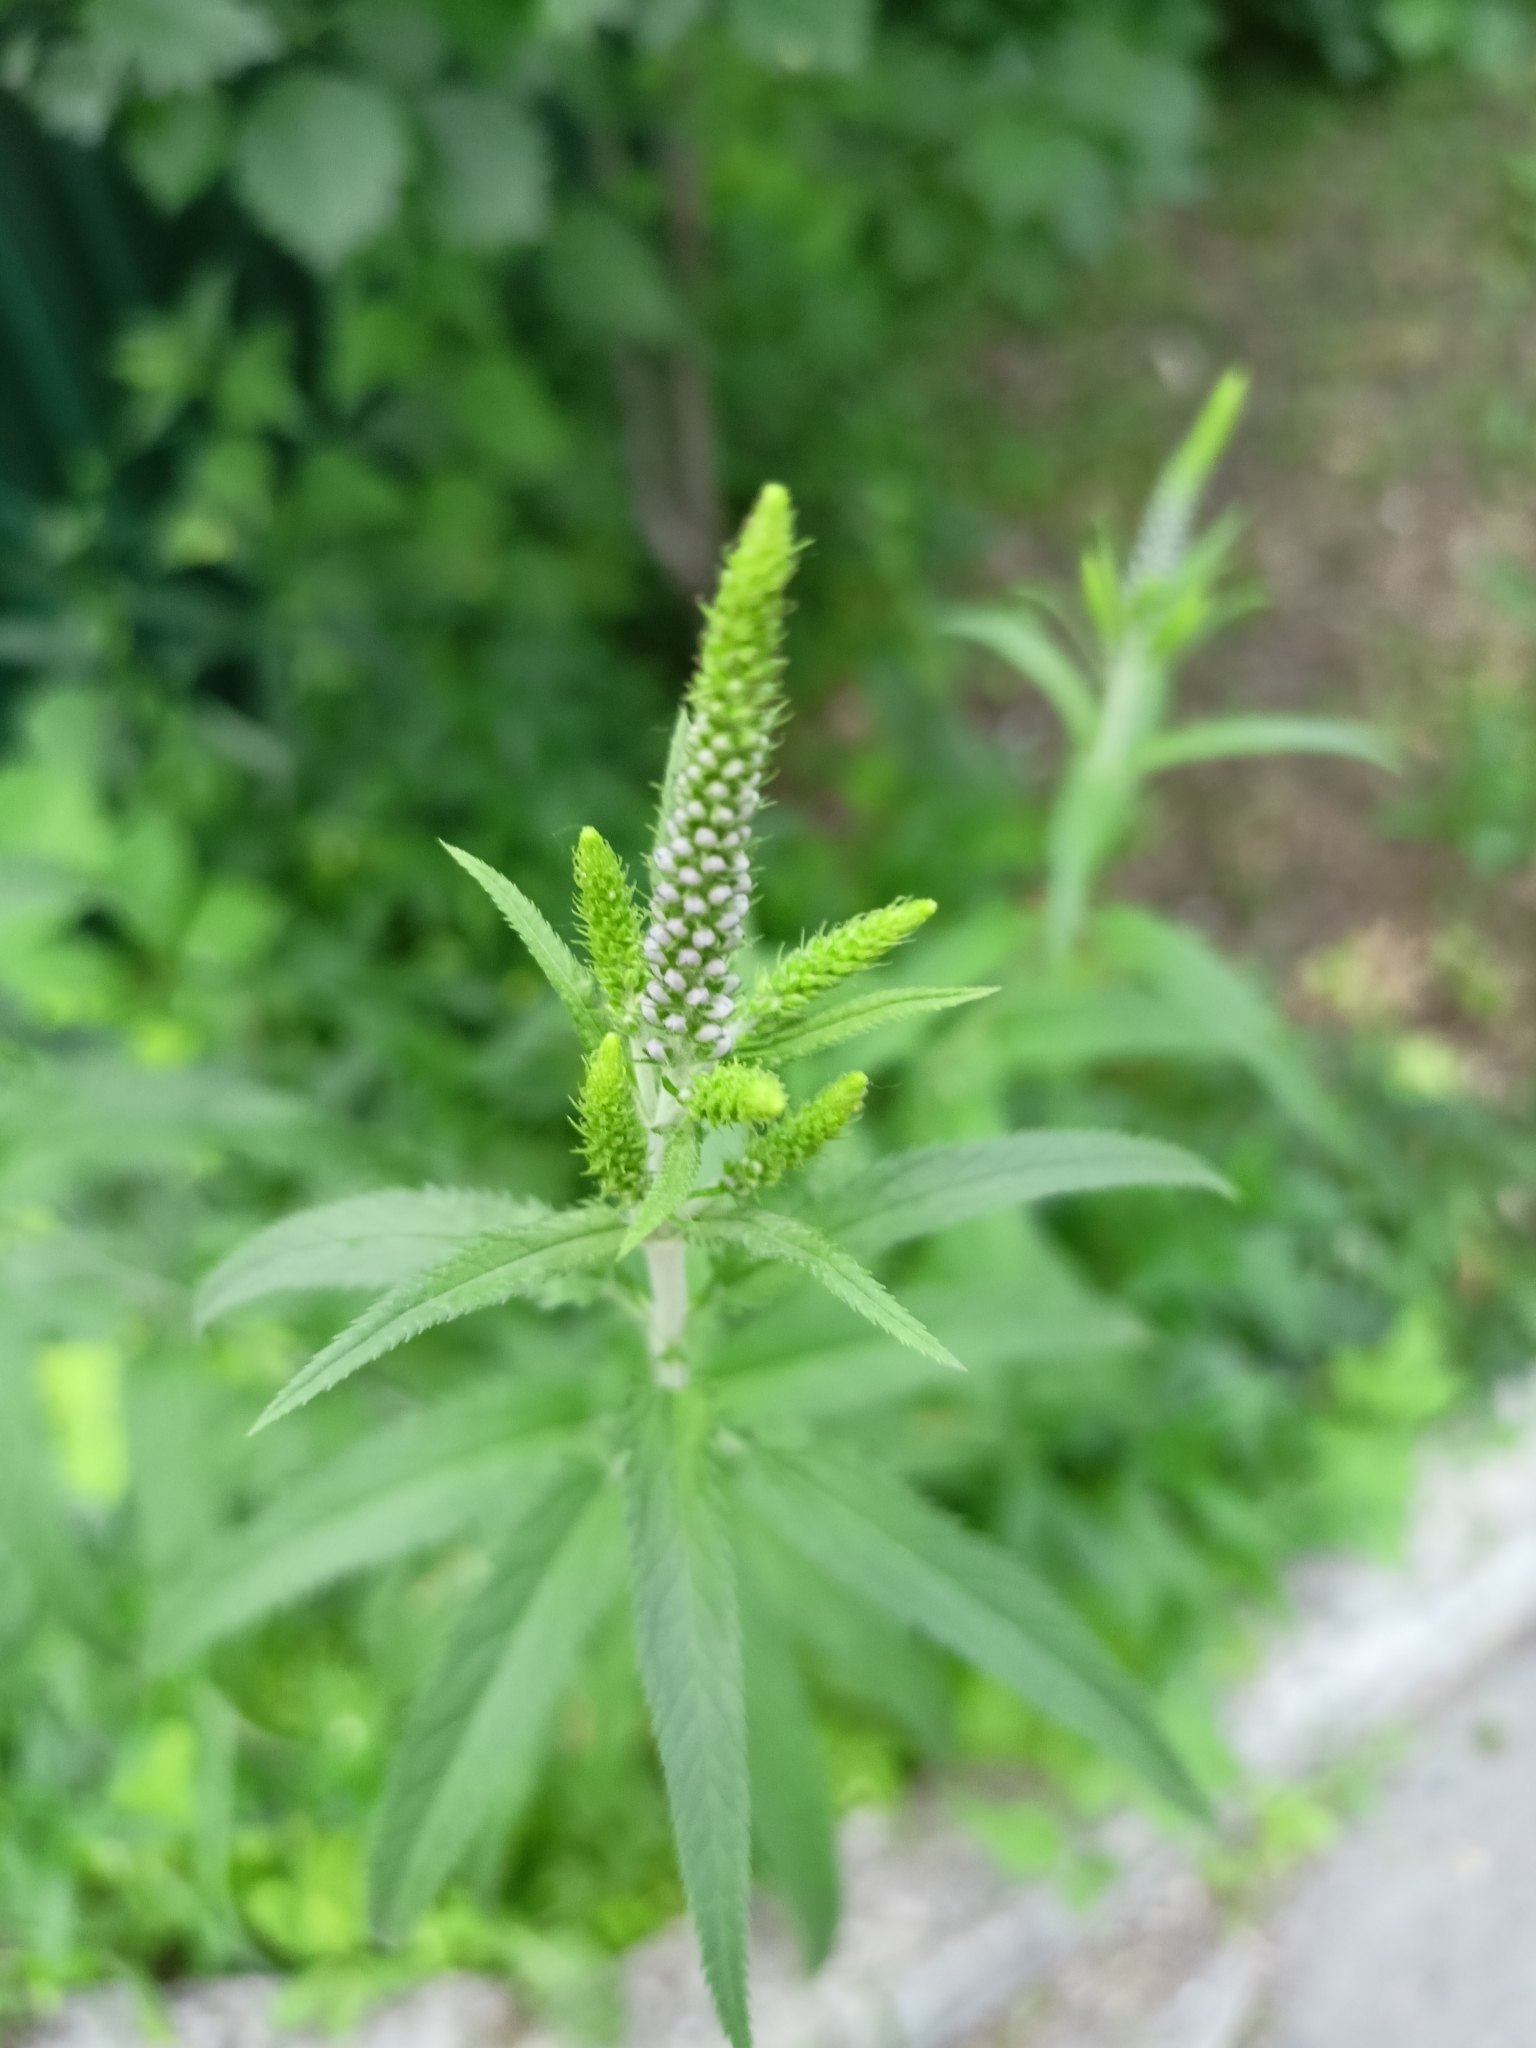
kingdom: Plantae
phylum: Tracheophyta
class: Magnoliopsida
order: Lamiales
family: Plantaginaceae
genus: Veronica
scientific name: Veronica longifolia
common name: Garden speedwell
